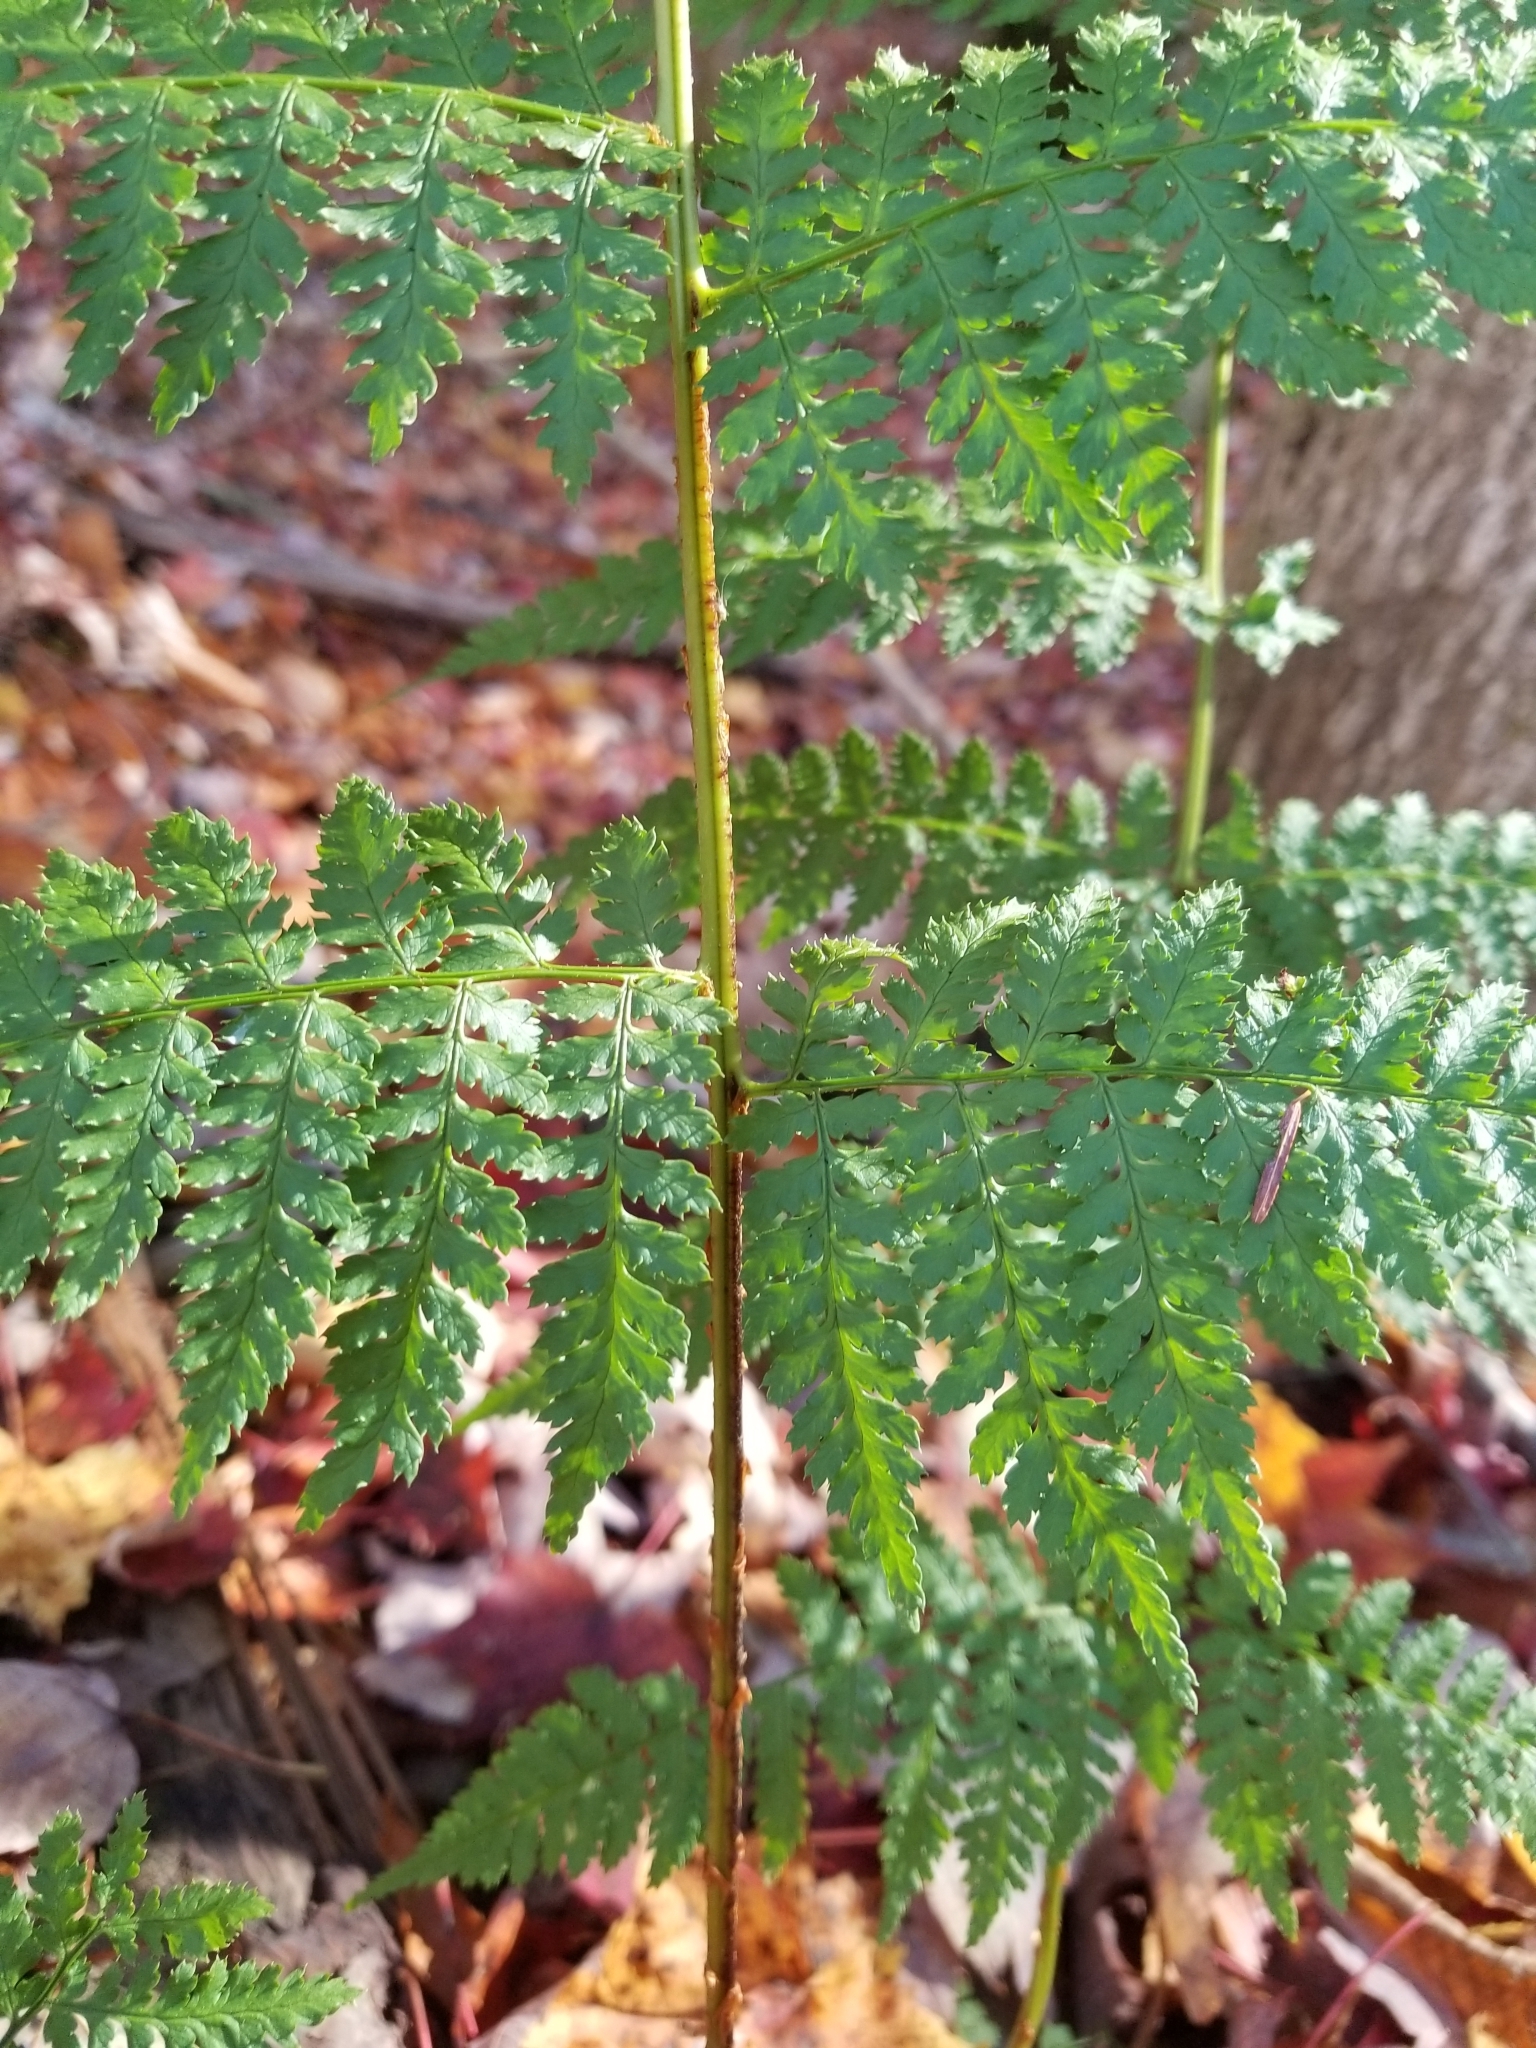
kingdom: Plantae
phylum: Tracheophyta
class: Polypodiopsida
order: Polypodiales
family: Dryopteridaceae
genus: Dryopteris
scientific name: Dryopteris intermedia
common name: Evergreen wood fern
